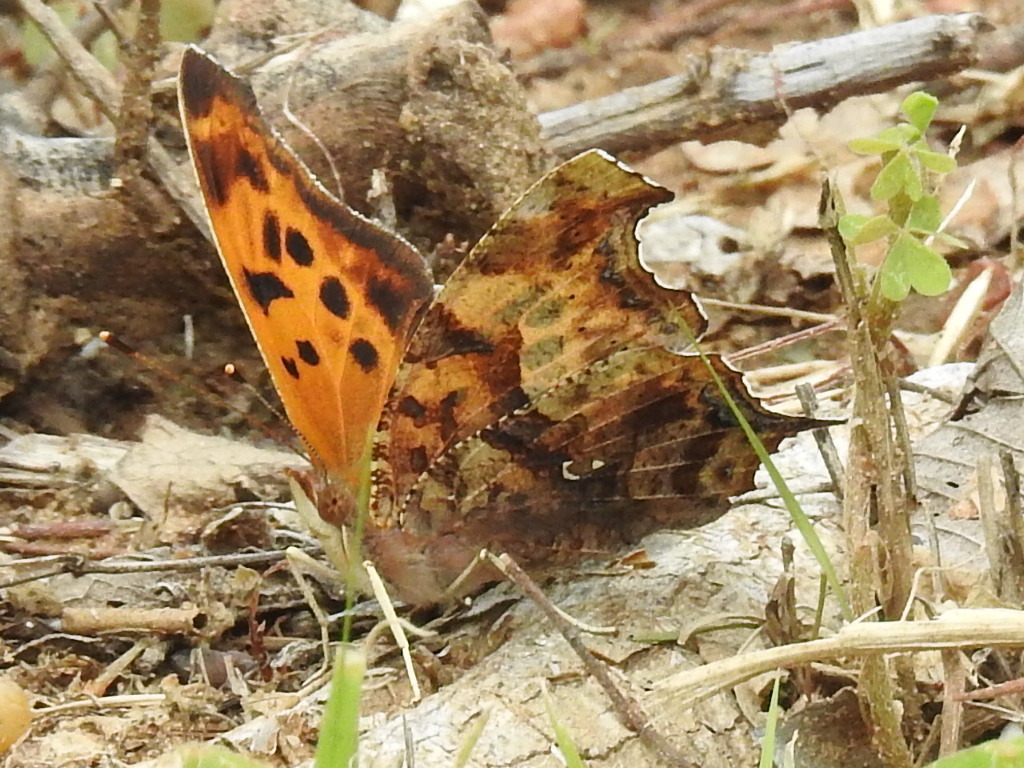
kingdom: Animalia
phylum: Arthropoda
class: Insecta
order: Lepidoptera
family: Nymphalidae
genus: Polygonia
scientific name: Polygonia interrogationis
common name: Question mark
